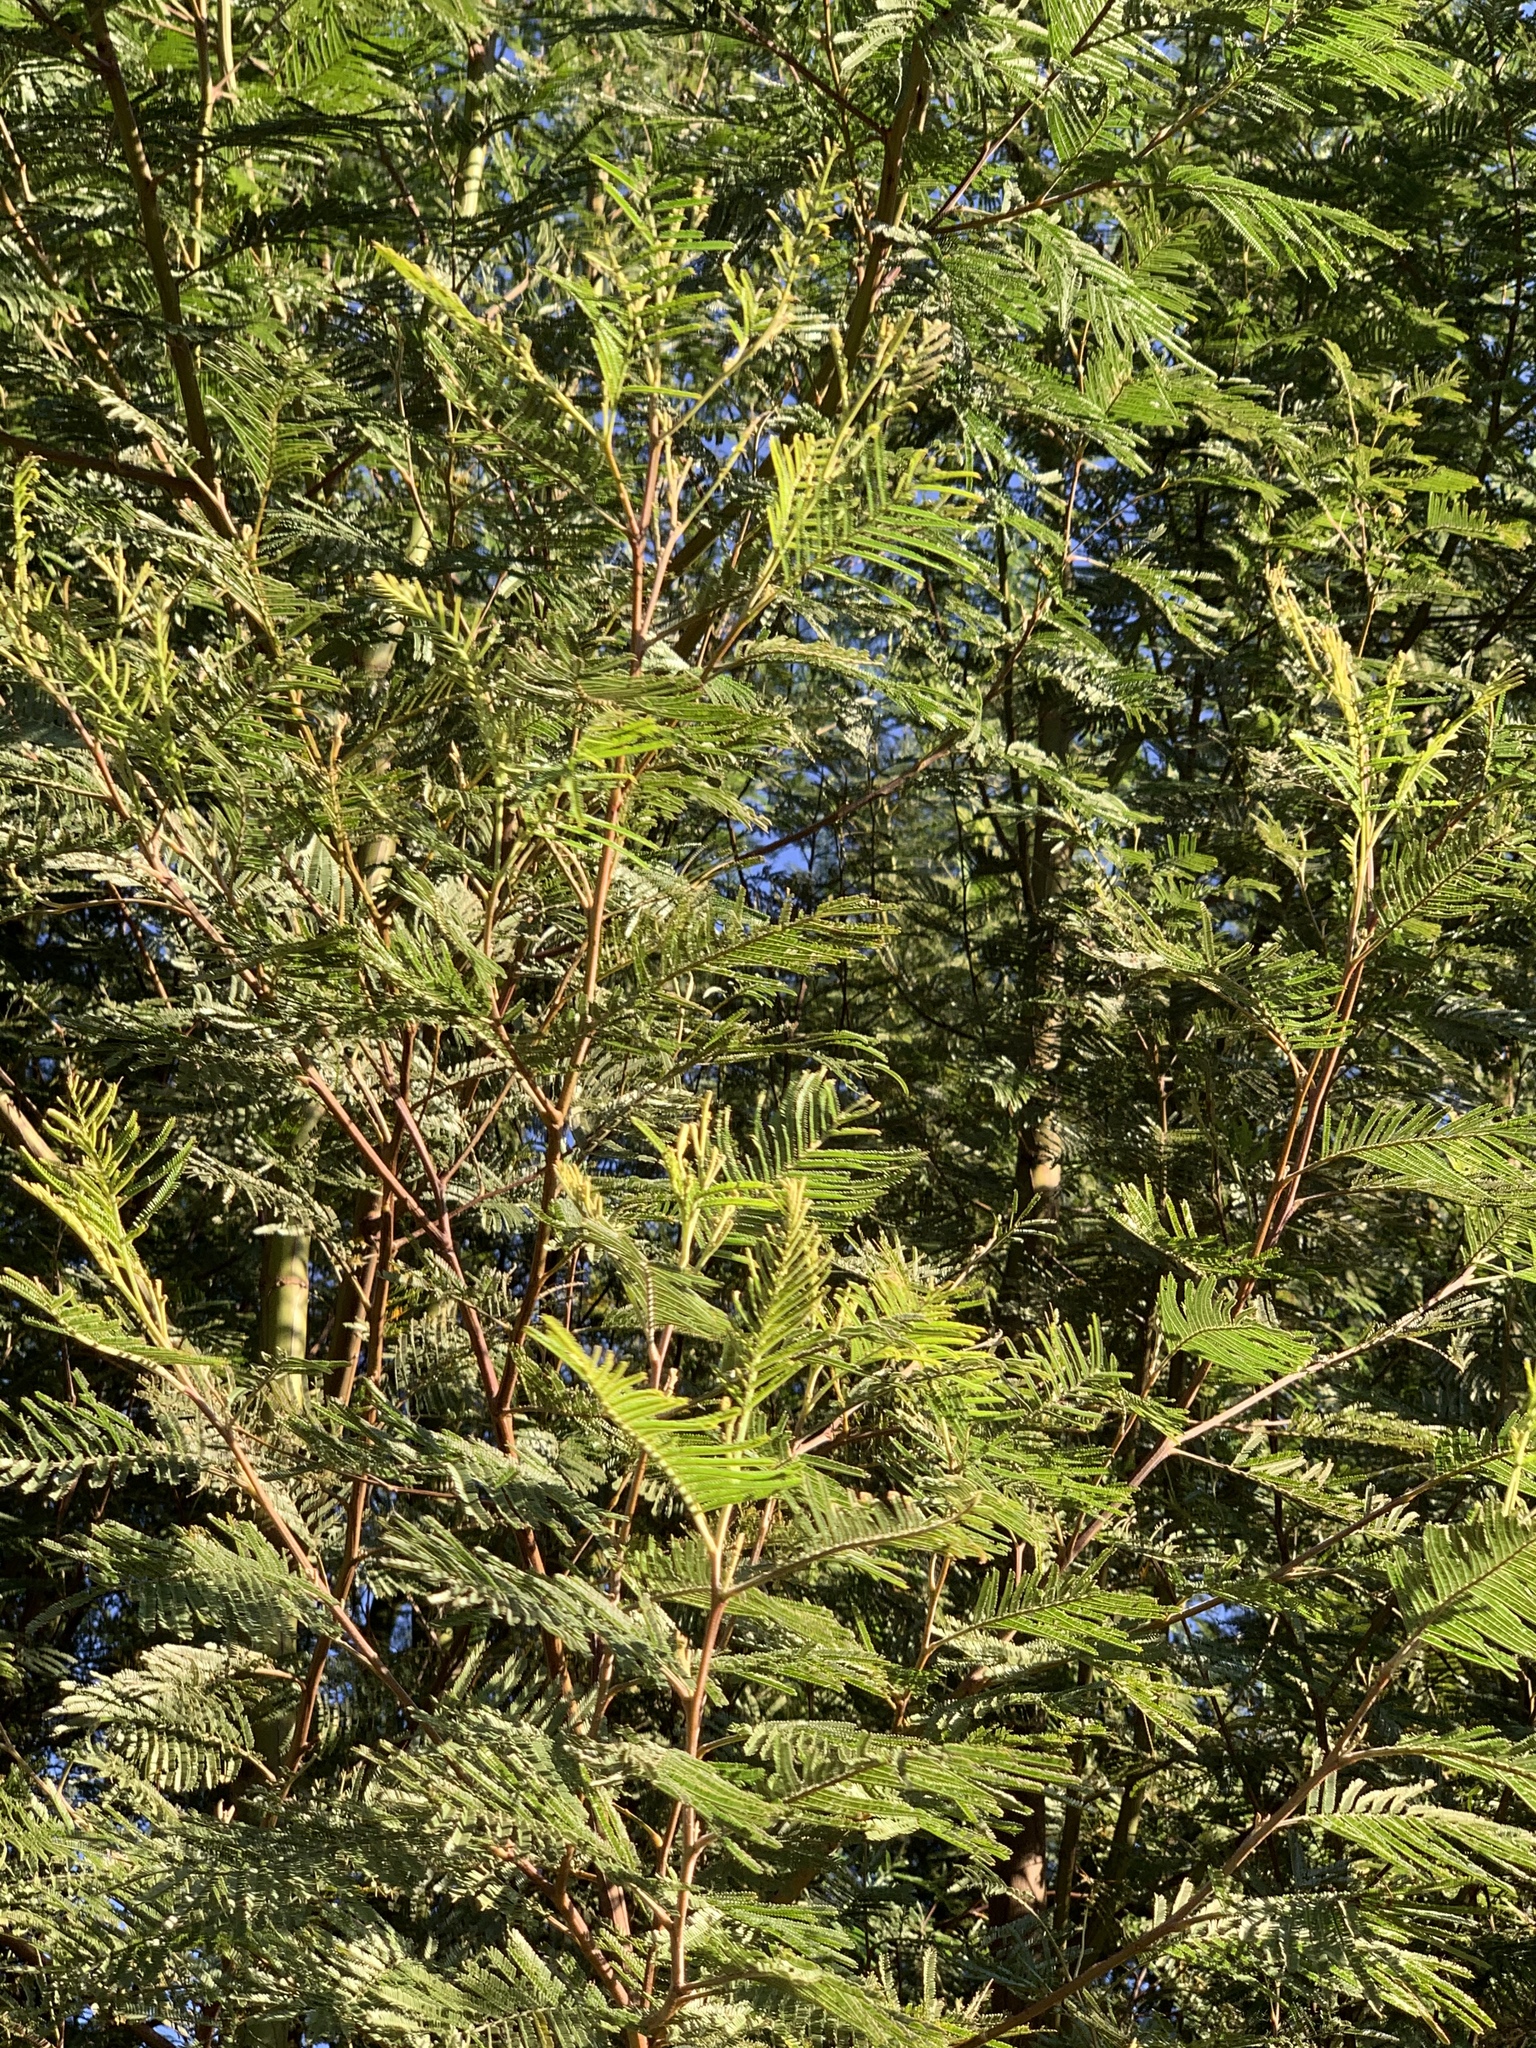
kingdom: Plantae
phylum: Tracheophyta
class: Magnoliopsida
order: Fabales
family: Fabaceae
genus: Acacia
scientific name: Acacia mearnsii
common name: Black wattle
